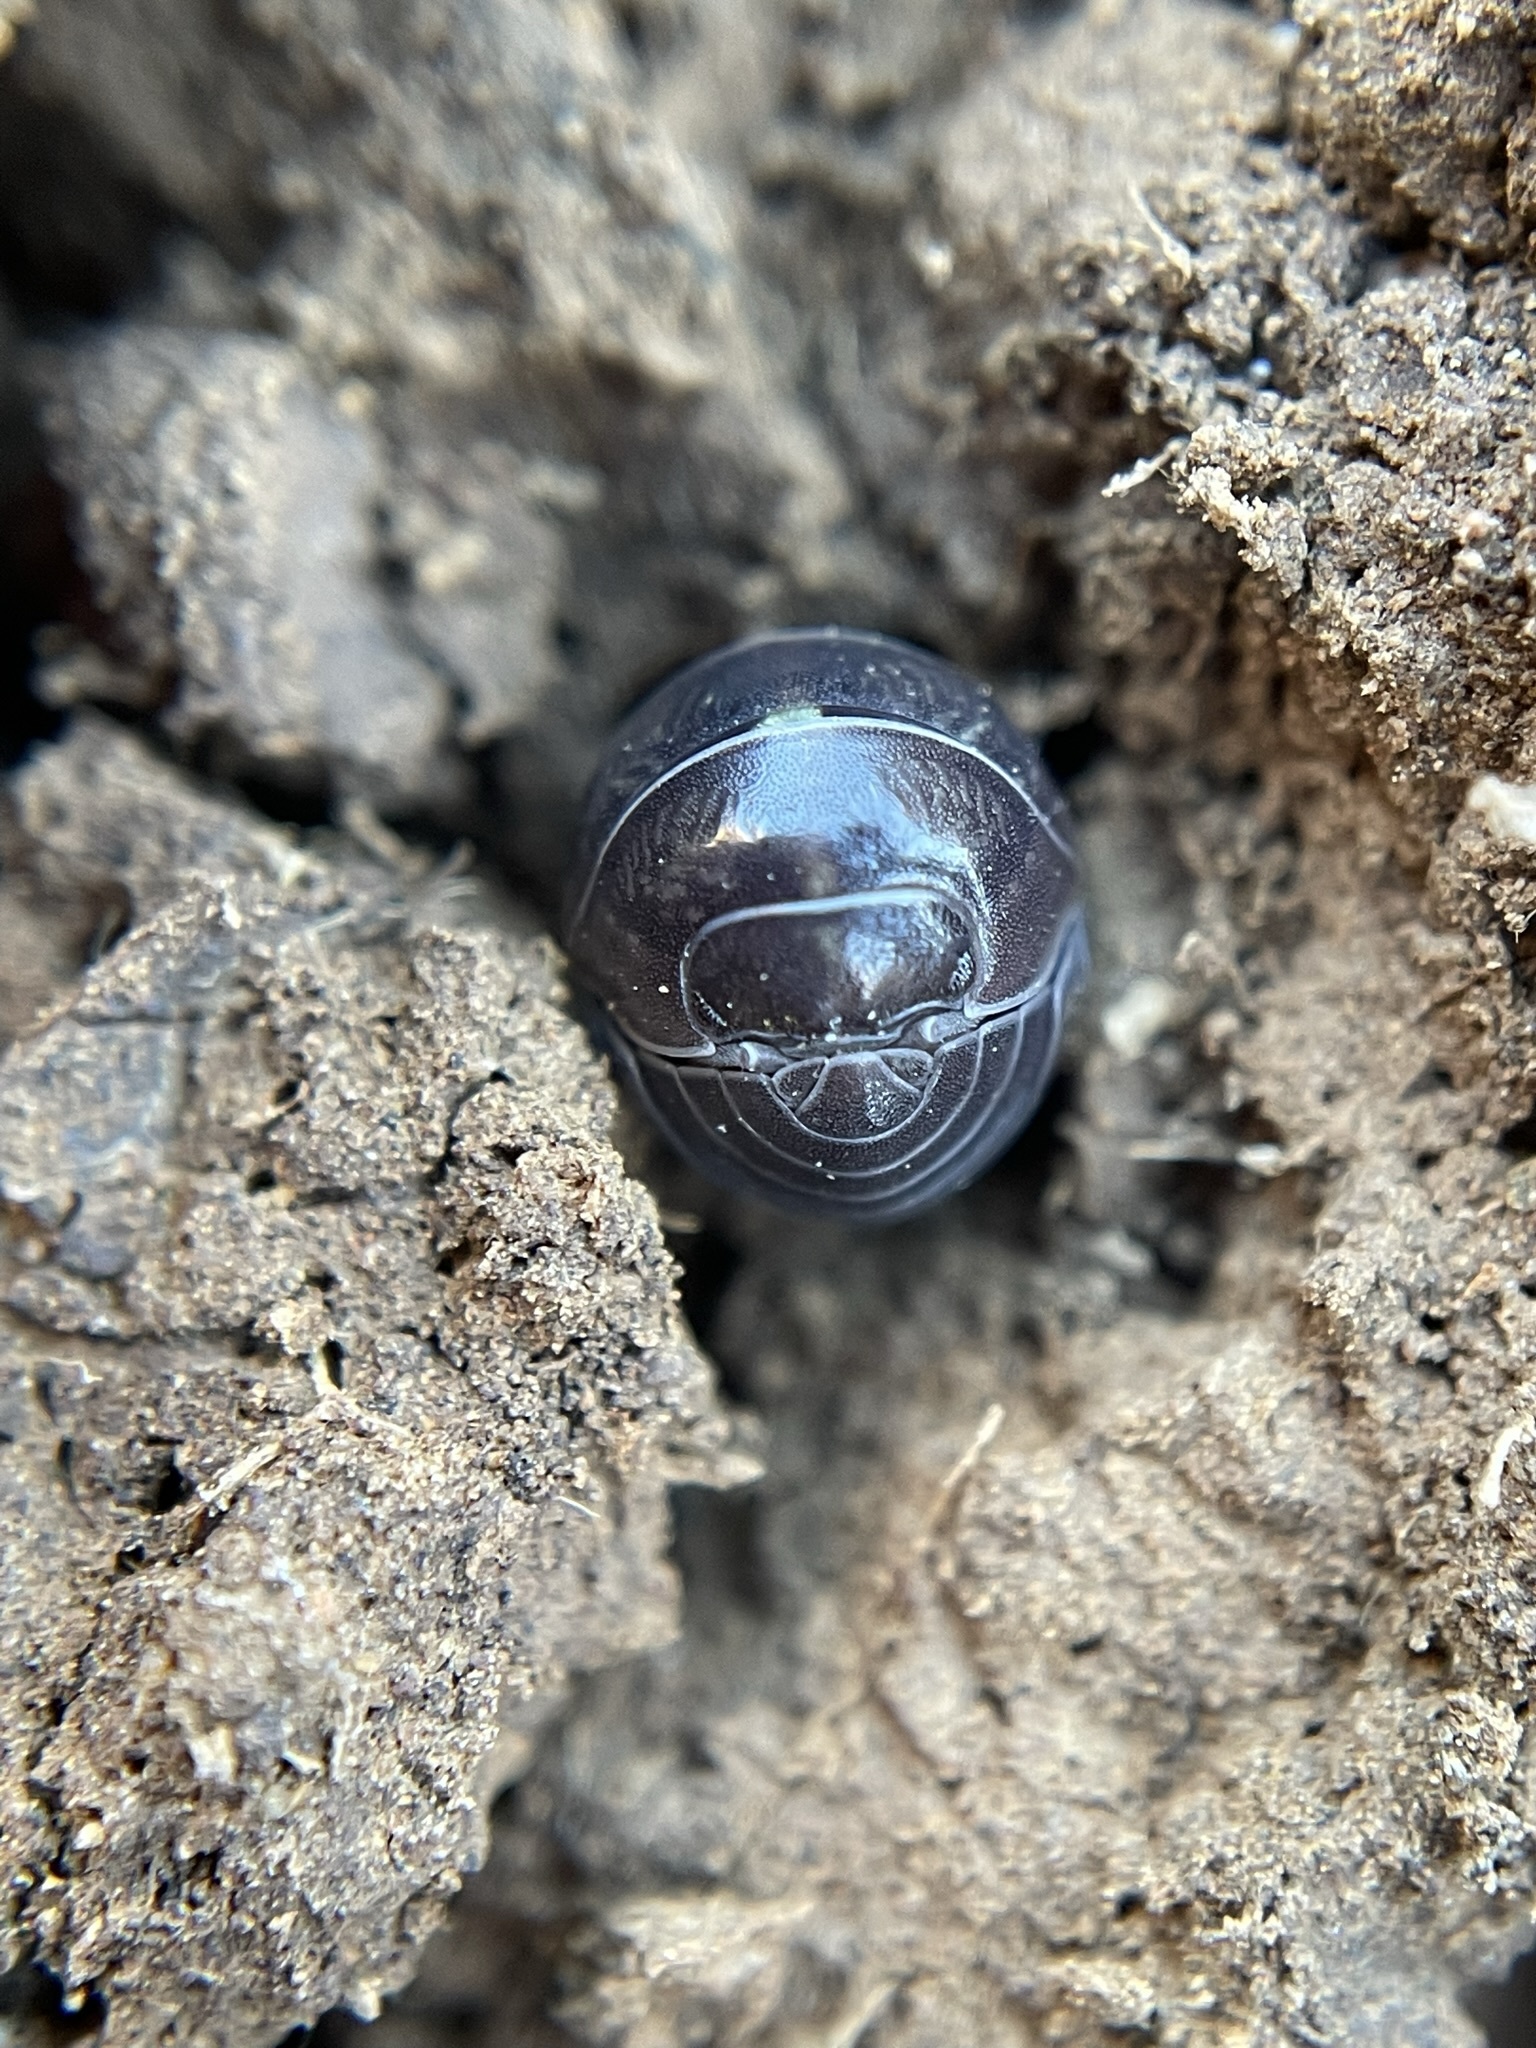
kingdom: Animalia
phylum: Arthropoda
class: Malacostraca
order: Isopoda
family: Armadillidiidae
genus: Armadillidium
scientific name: Armadillidium vulgare
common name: Common pill woodlouse
